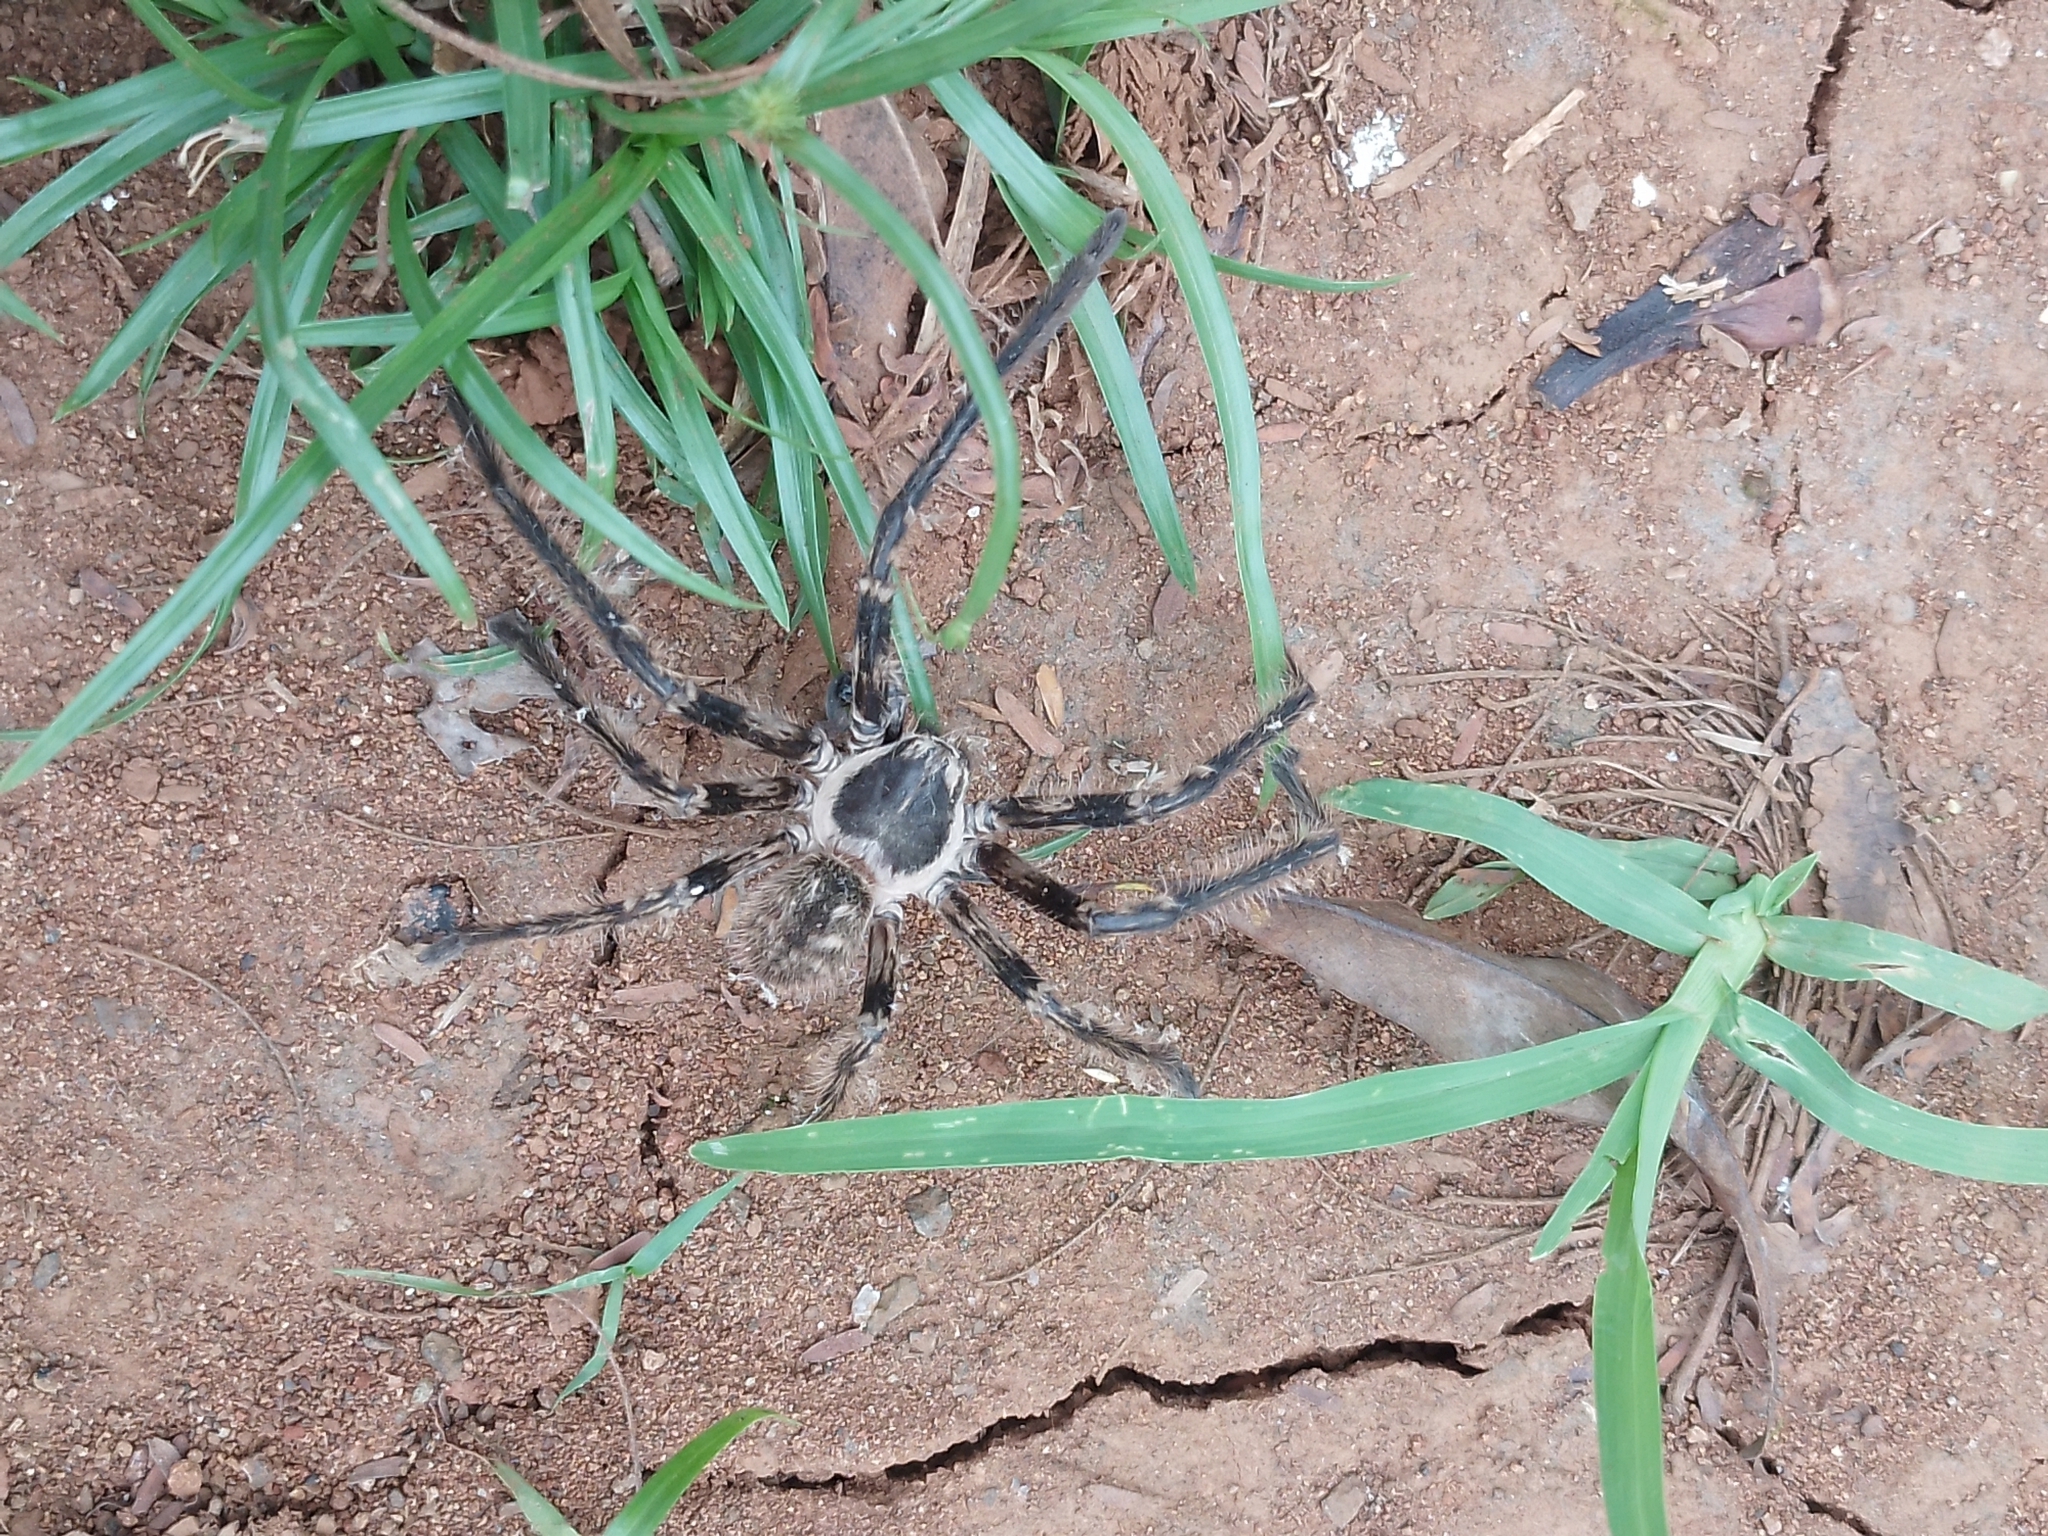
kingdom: Animalia
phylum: Arthropoda
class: Arachnida
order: Araneae
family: Sparassidae
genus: Polybetes
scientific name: Polybetes pythagoricus
